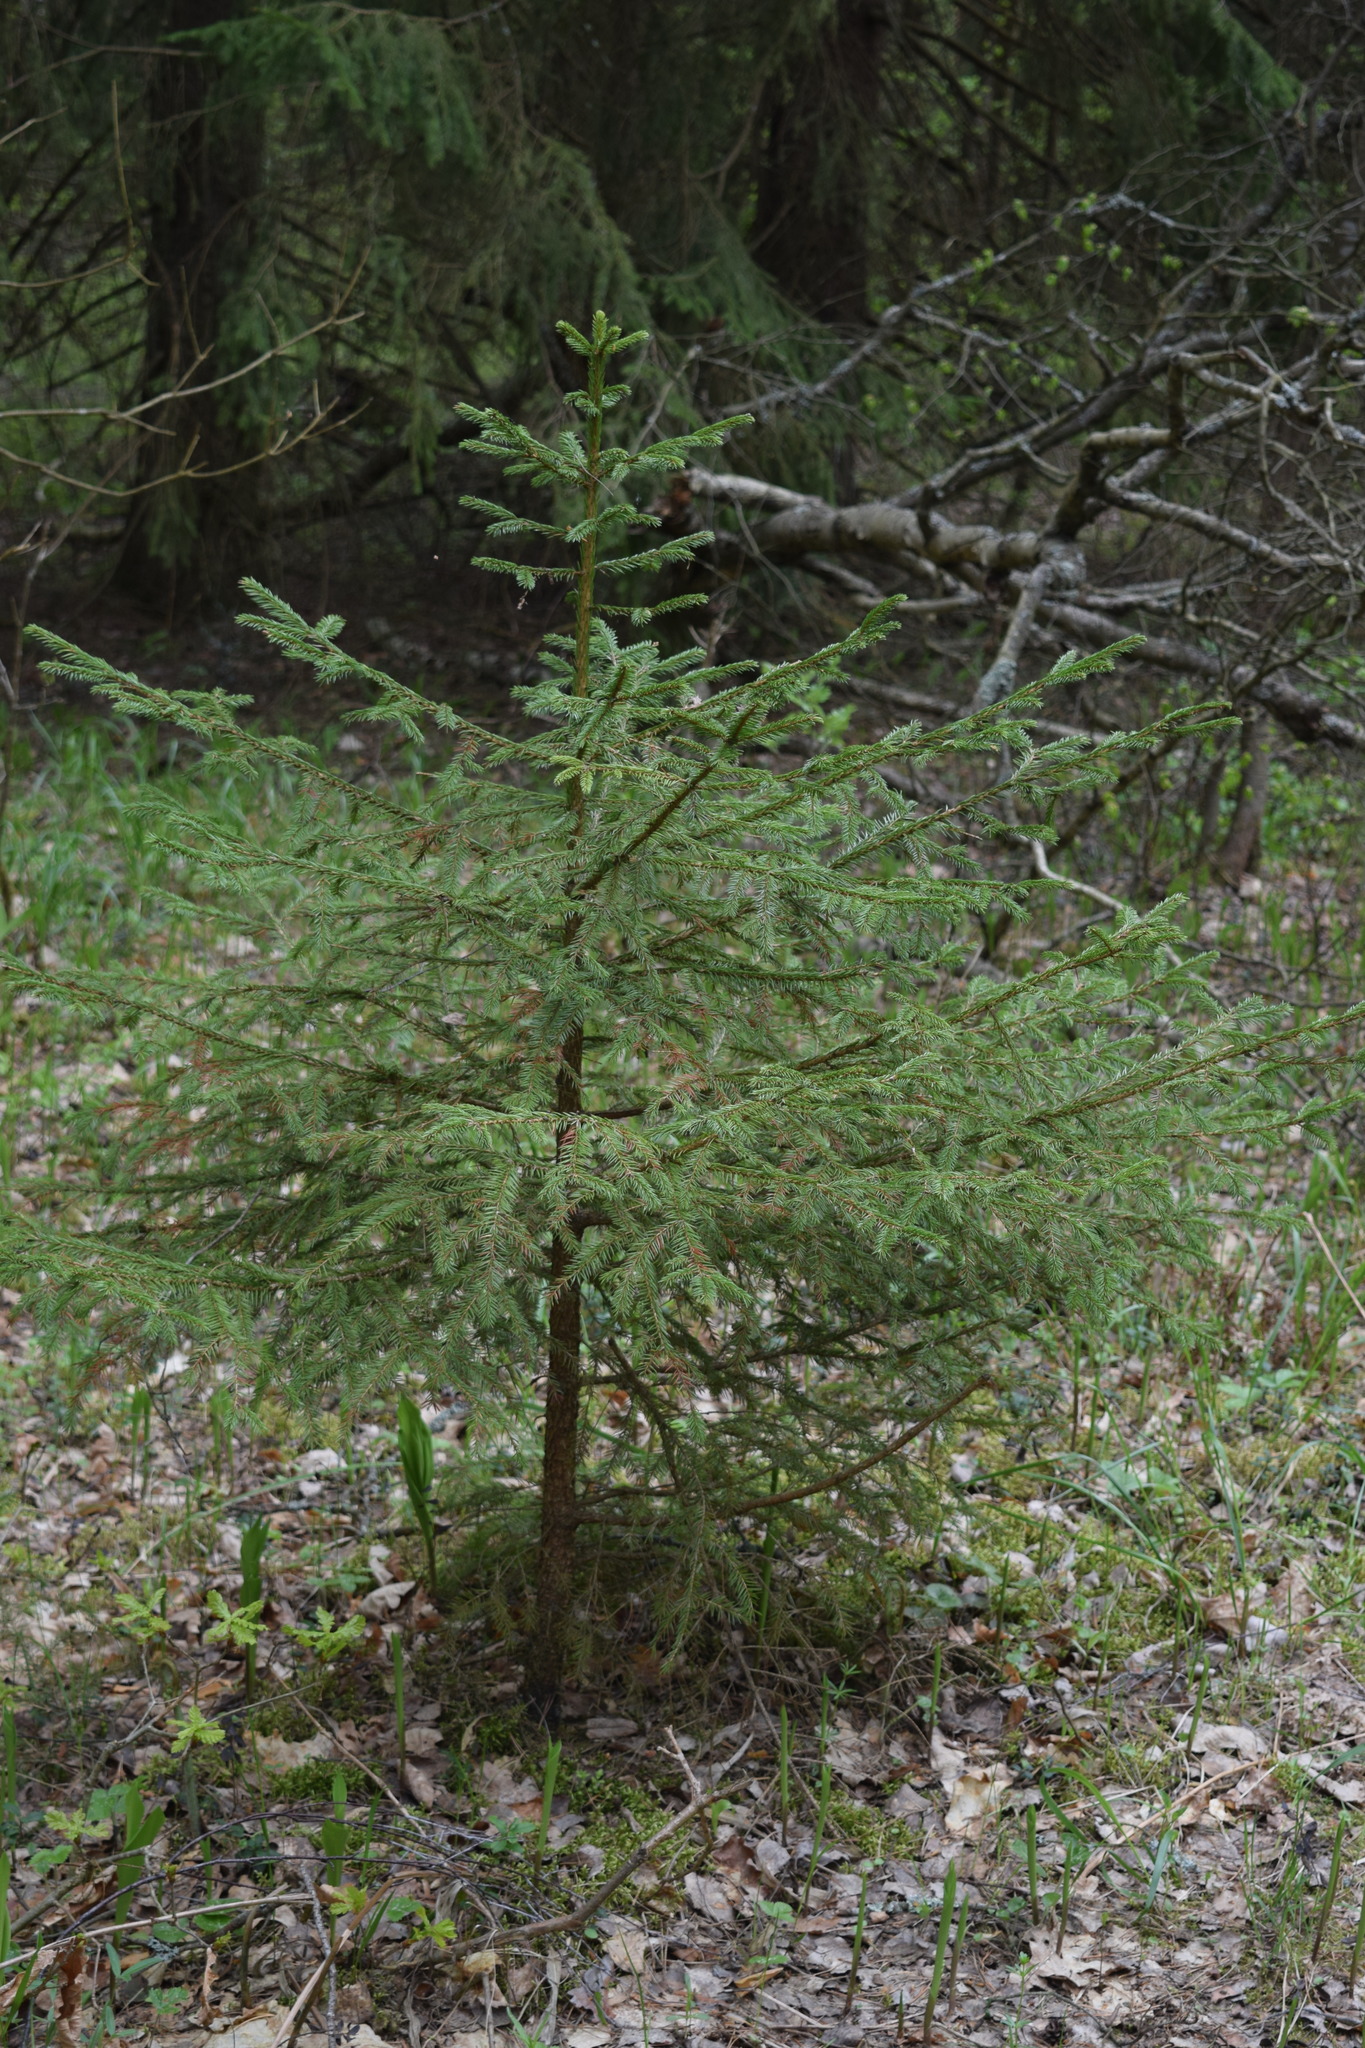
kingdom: Plantae
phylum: Tracheophyta
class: Pinopsida
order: Pinales
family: Pinaceae
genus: Picea
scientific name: Picea abies
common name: Norway spruce
